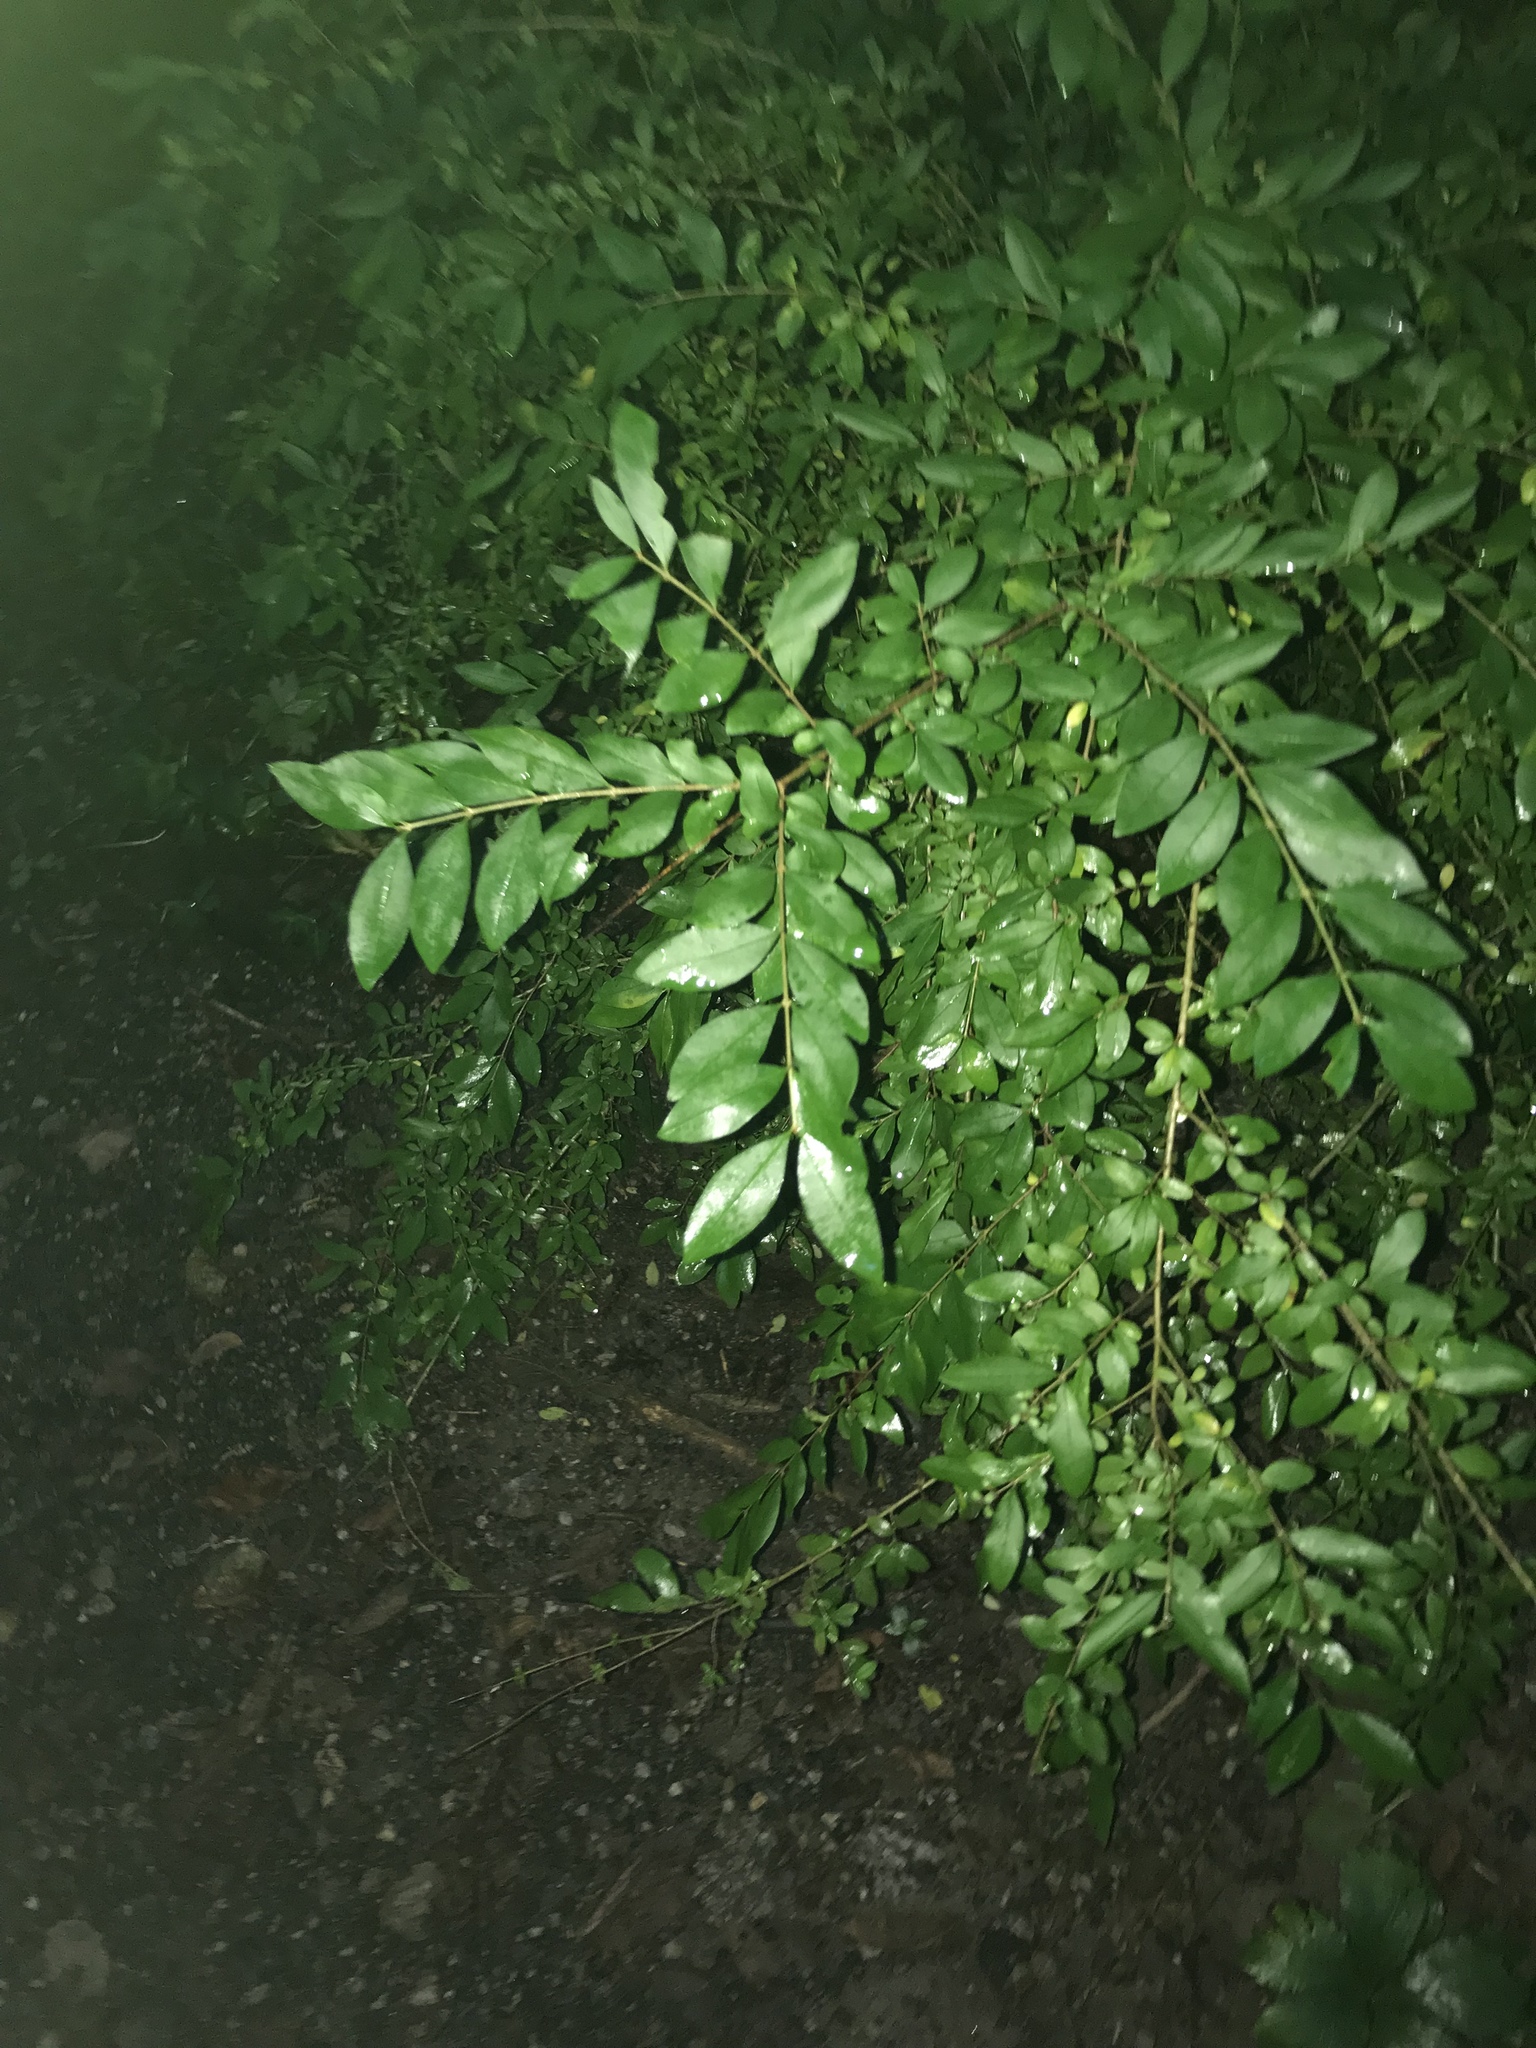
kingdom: Plantae
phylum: Tracheophyta
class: Magnoliopsida
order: Lamiales
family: Oleaceae
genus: Ligustrum
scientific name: Ligustrum obtusifolium
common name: Border privet
